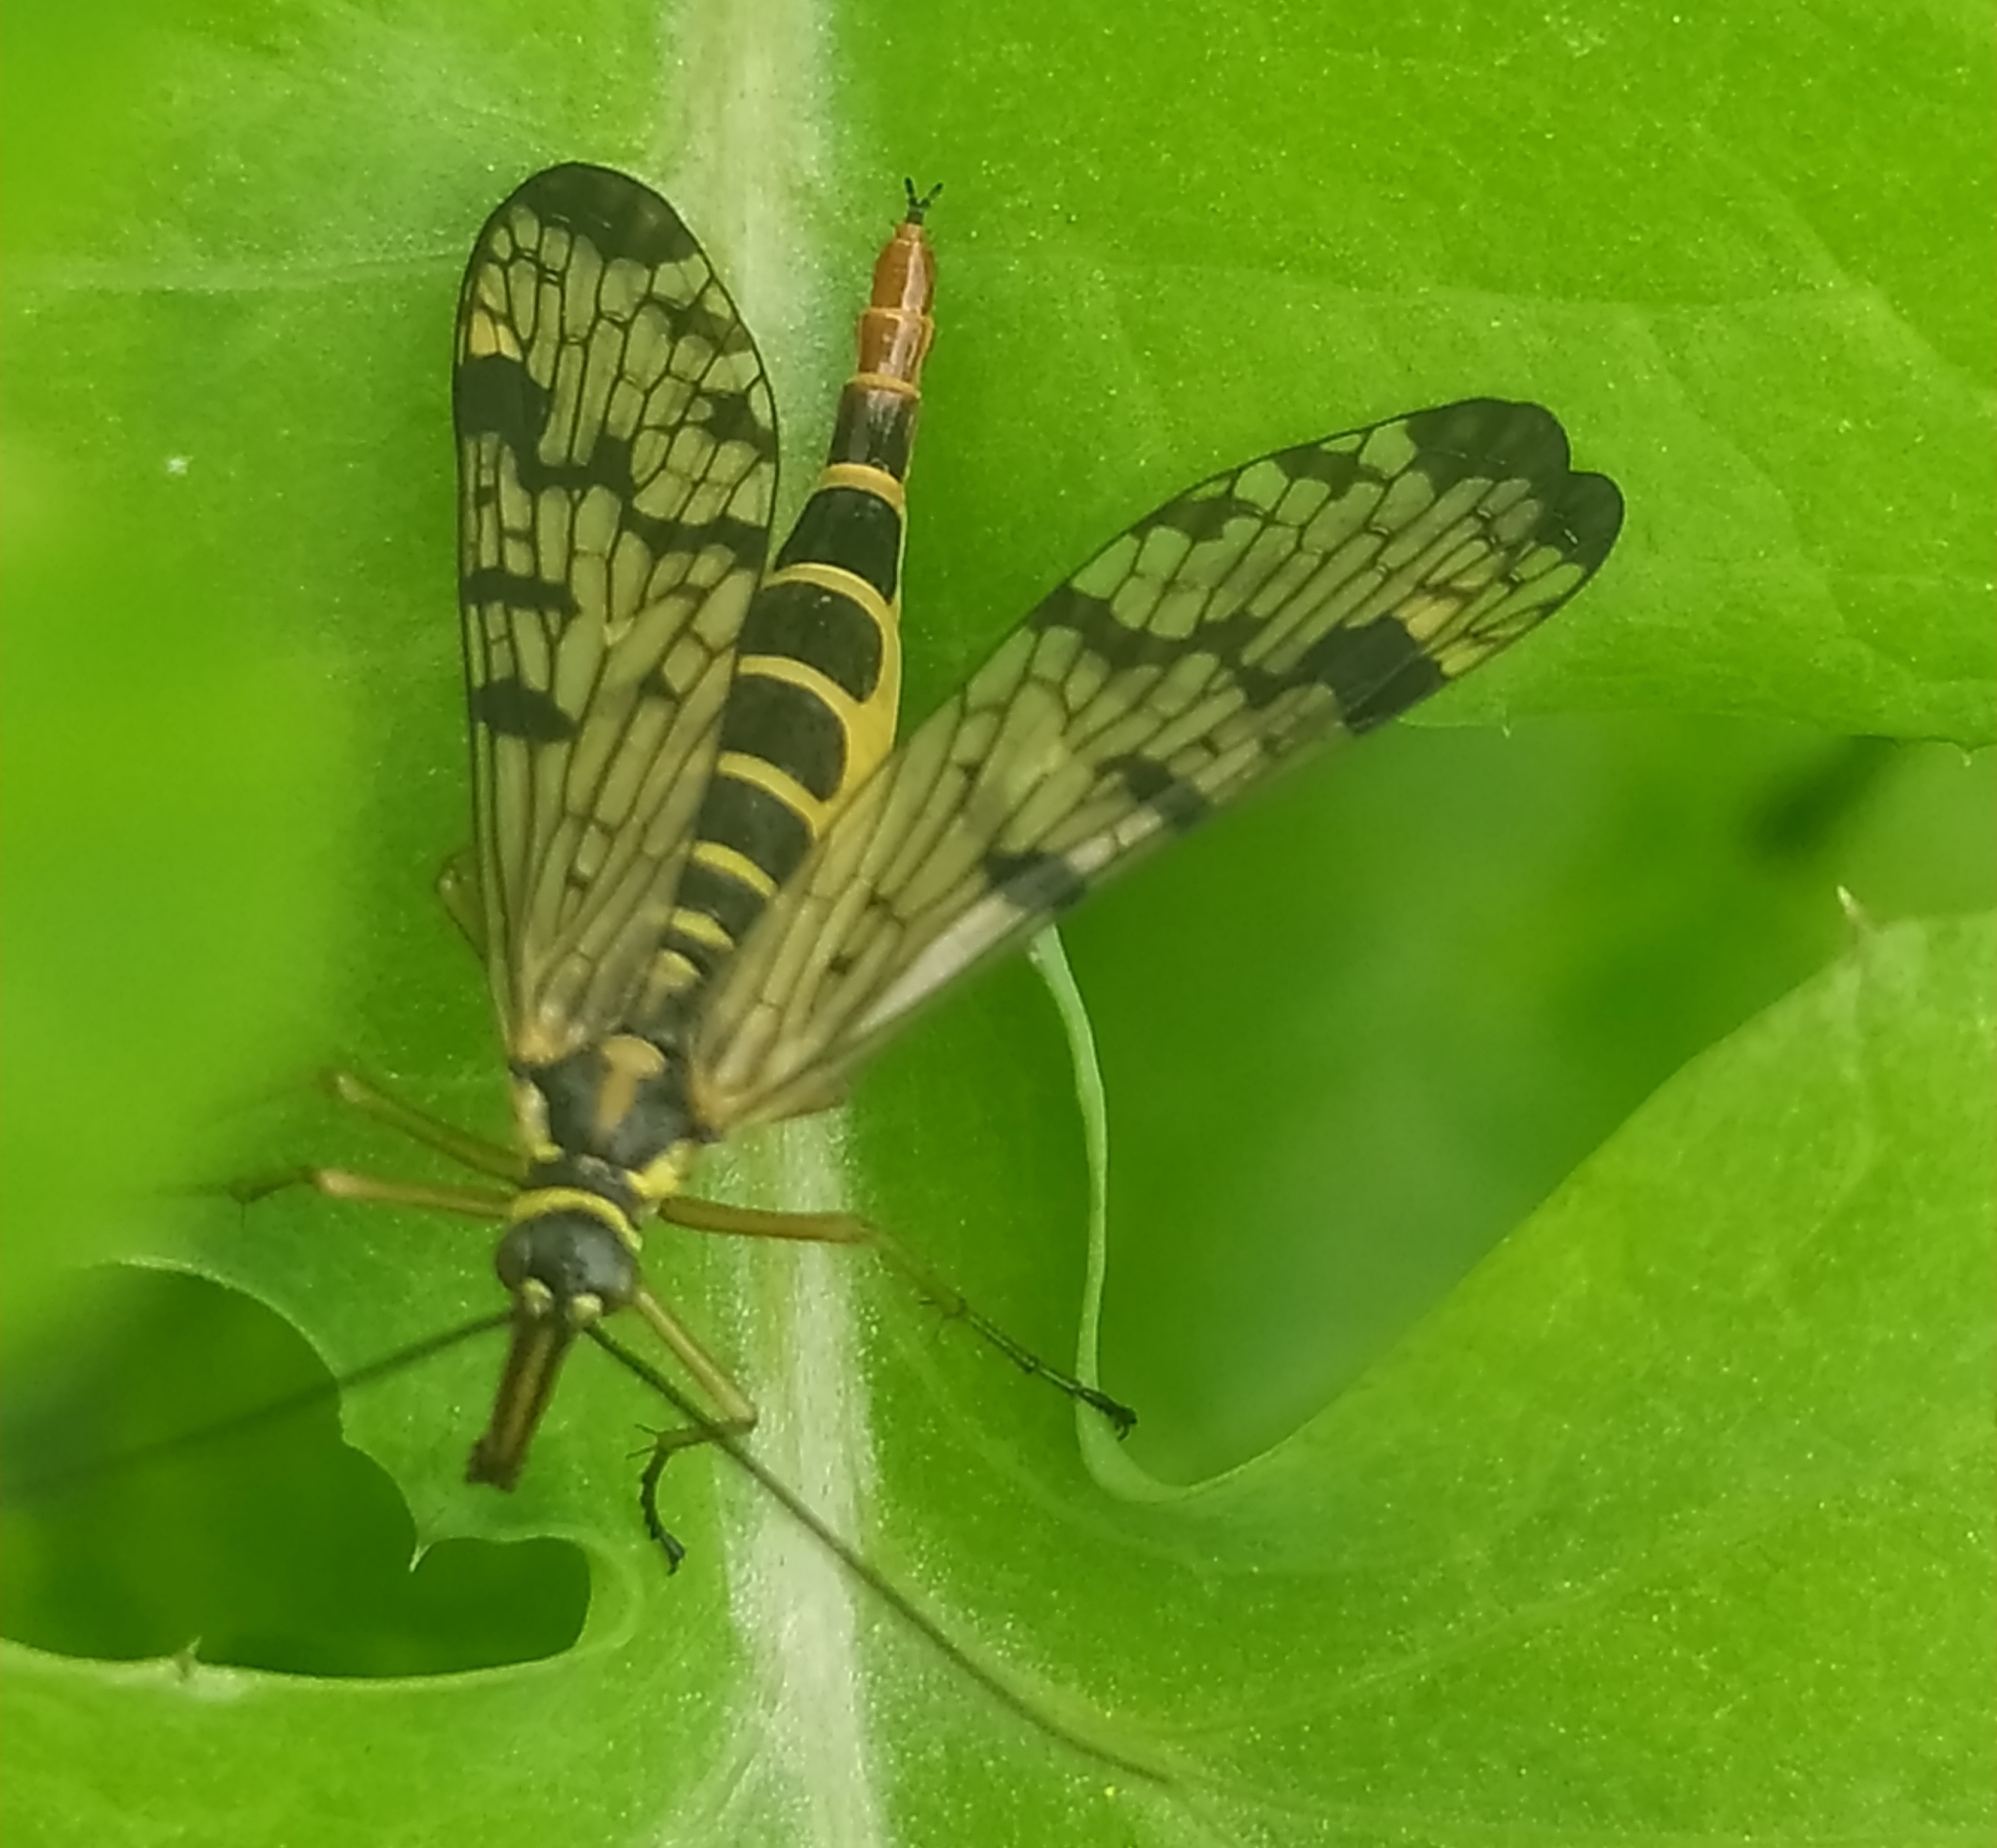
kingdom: Animalia
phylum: Arthropoda
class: Insecta
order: Mecoptera
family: Panorpidae
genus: Panorpa
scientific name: Panorpa communis
